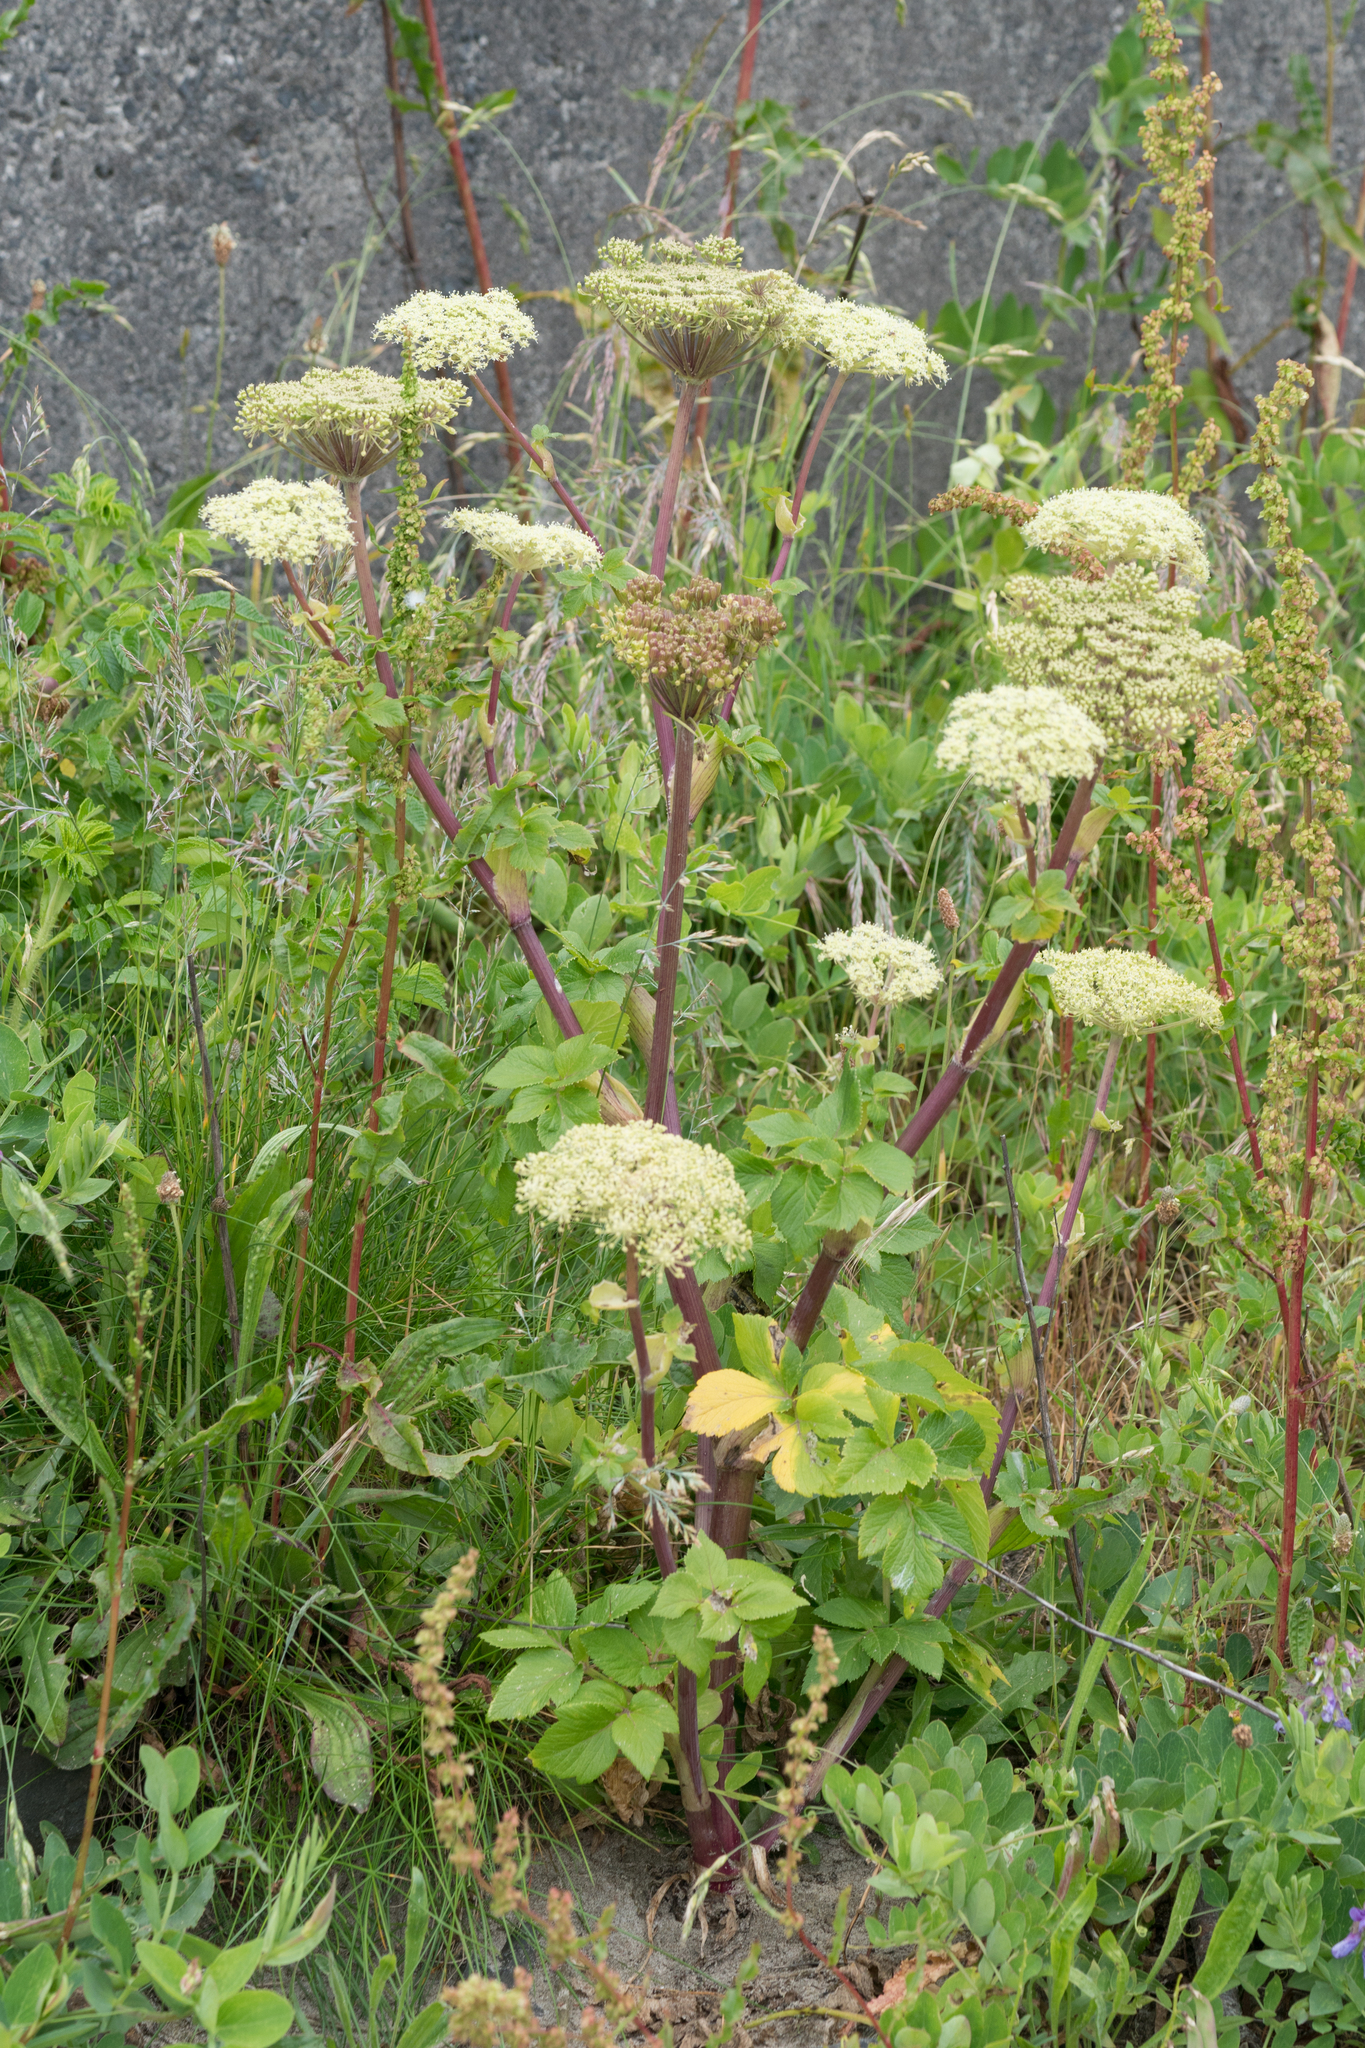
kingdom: Plantae
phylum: Tracheophyta
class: Magnoliopsida
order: Apiales
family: Apiaceae
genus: Angelica
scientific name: Angelica lucida
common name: Seabeach angelica
